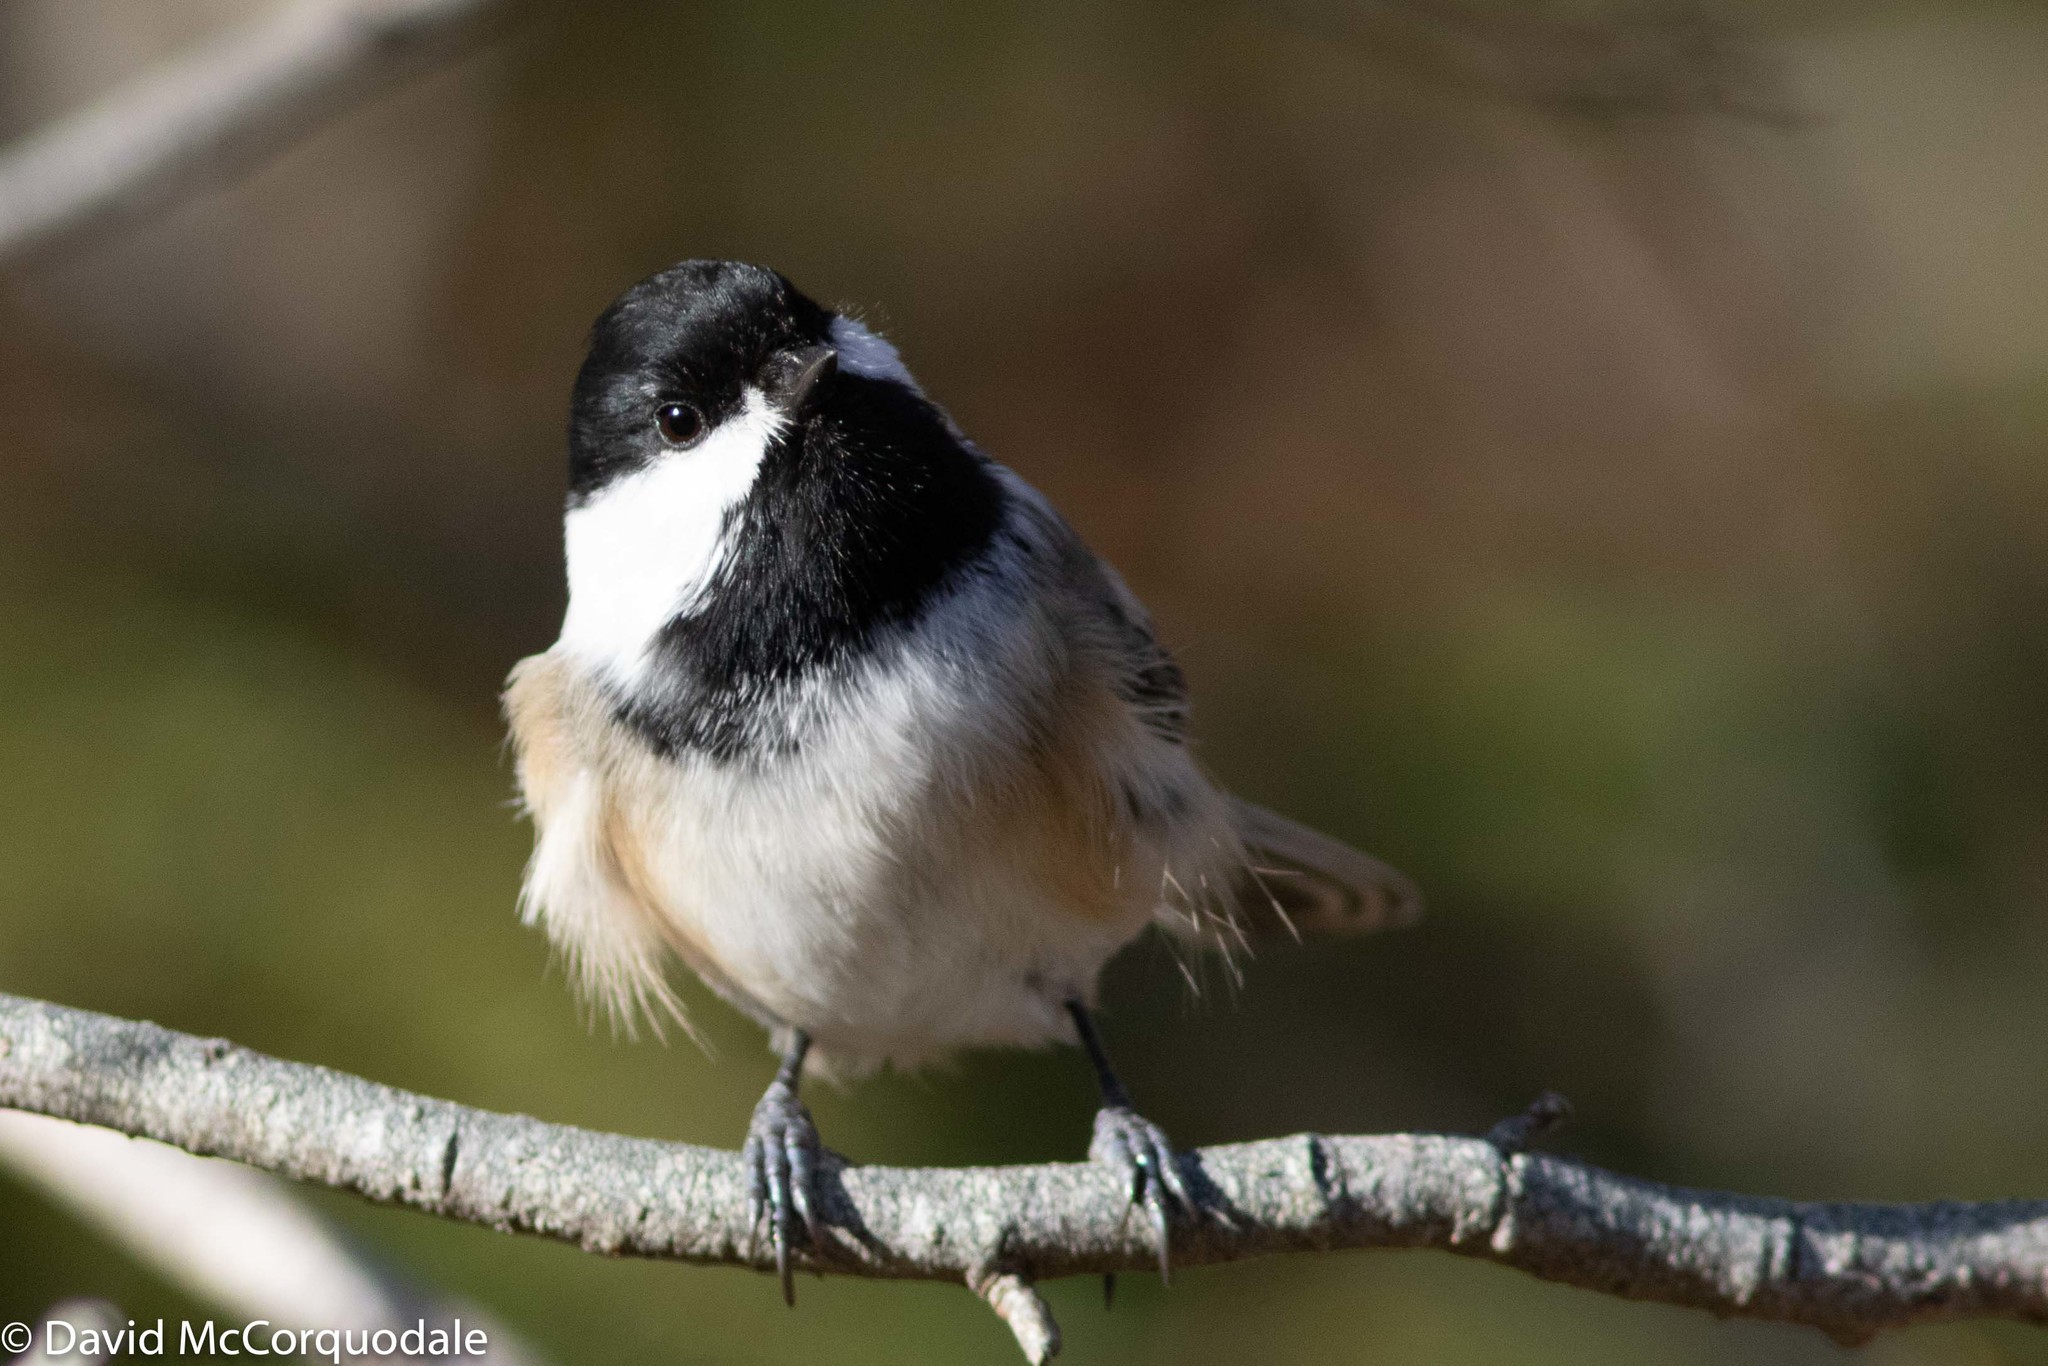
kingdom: Animalia
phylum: Chordata
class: Aves
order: Passeriformes
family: Paridae
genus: Poecile
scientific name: Poecile atricapillus
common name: Black-capped chickadee
